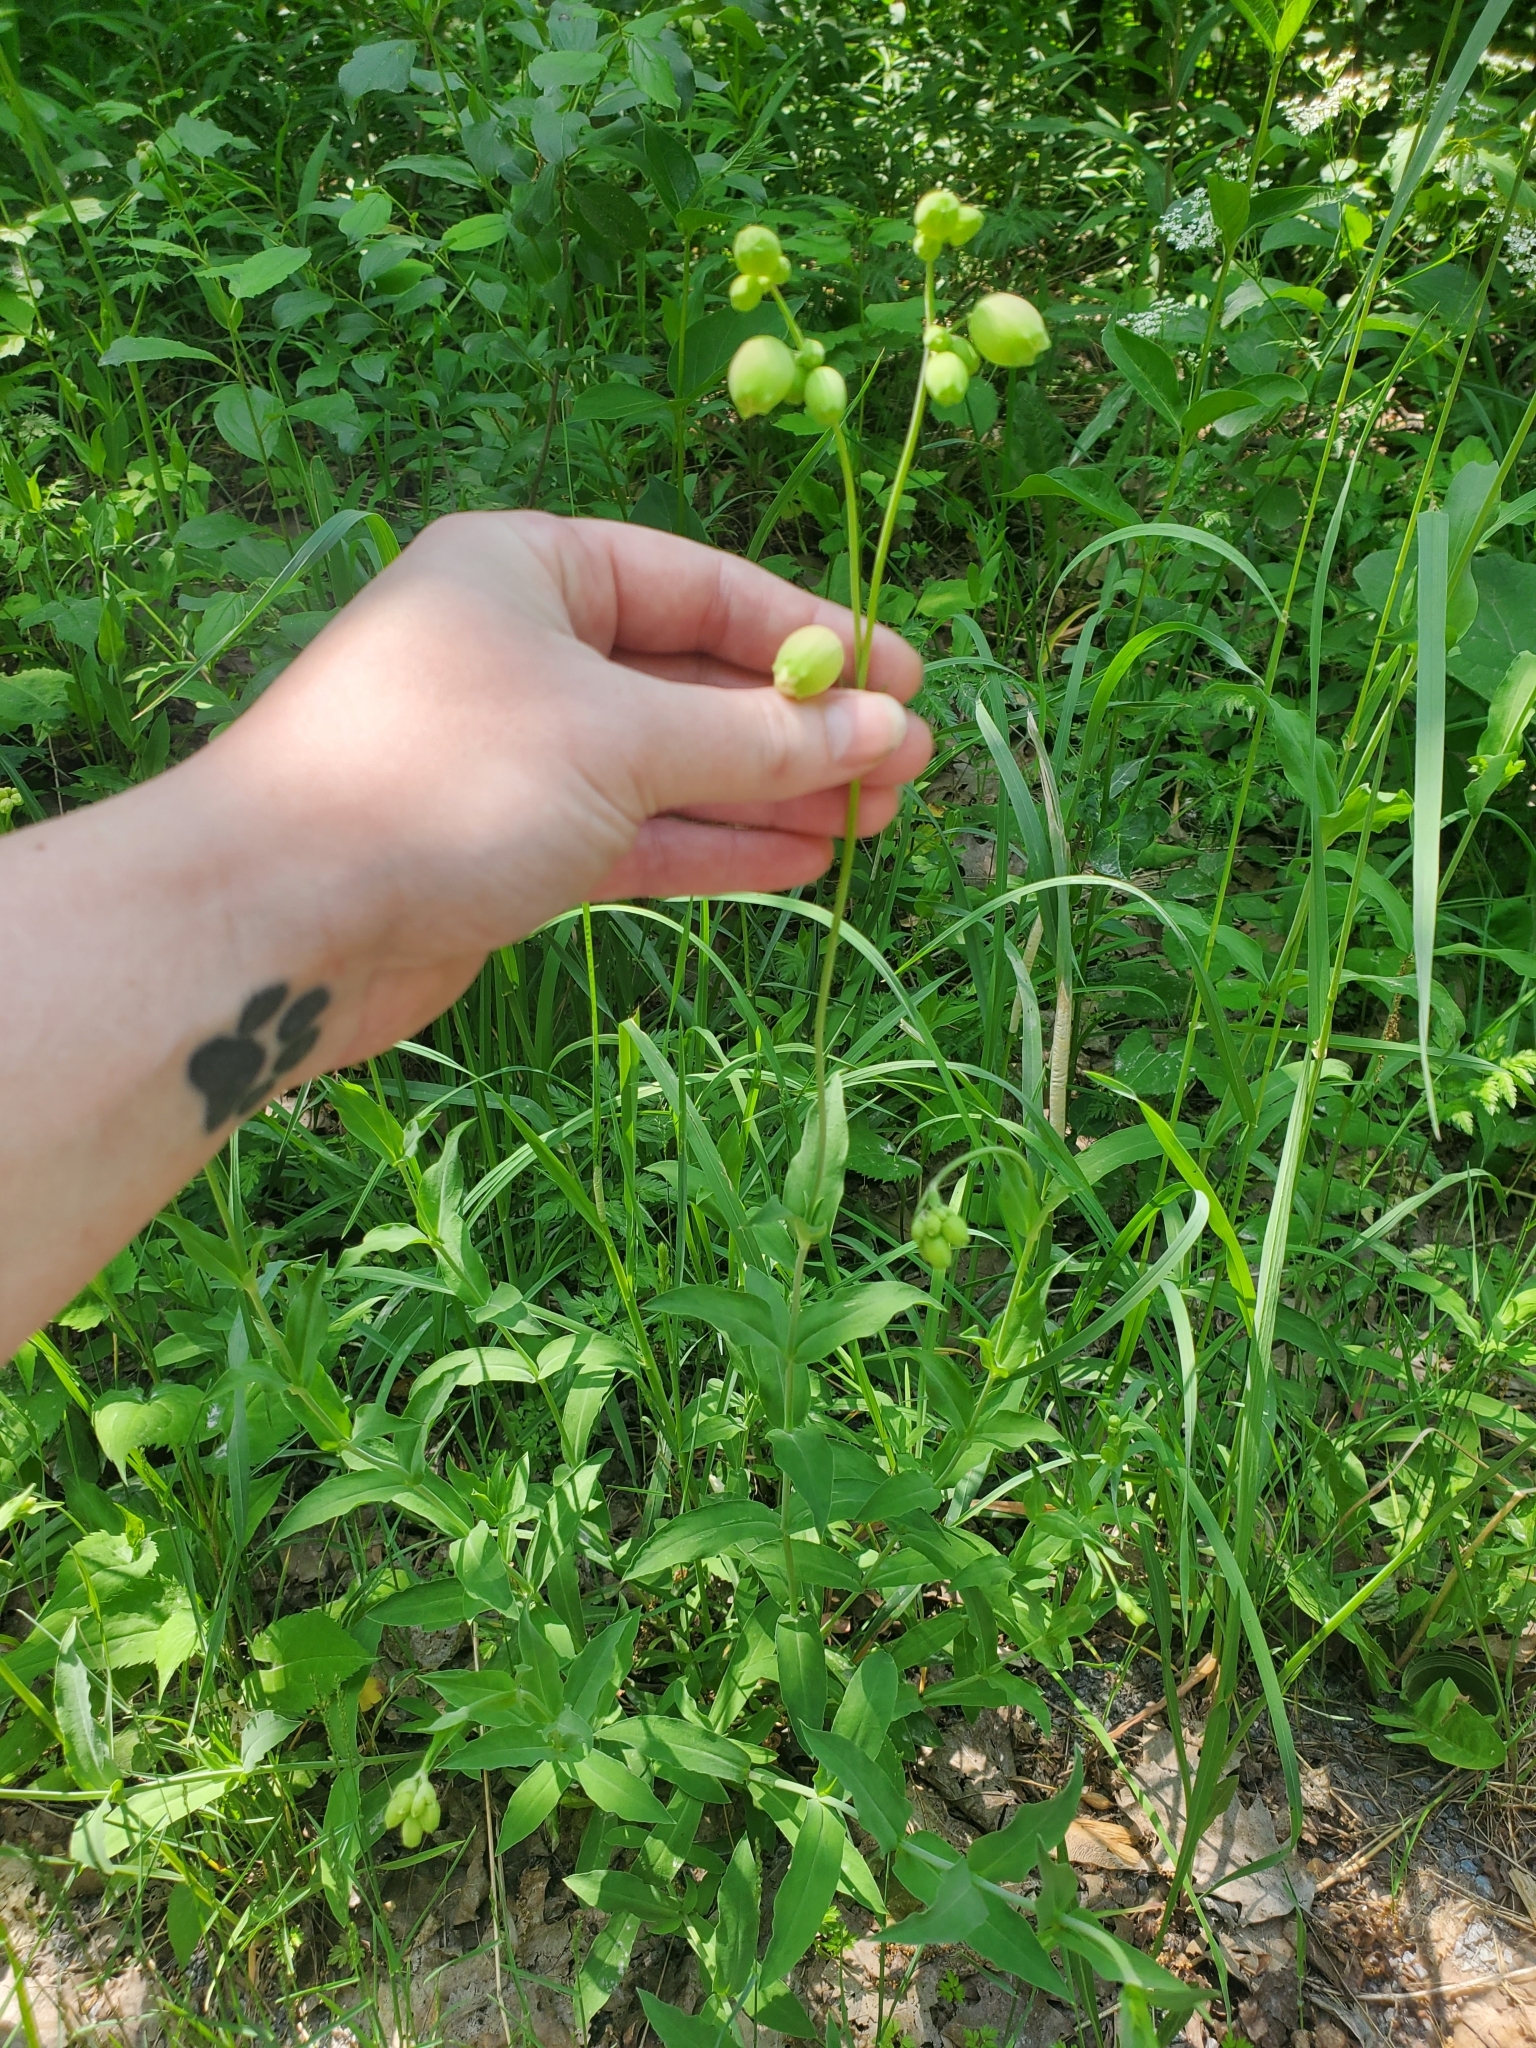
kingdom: Plantae
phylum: Tracheophyta
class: Magnoliopsida
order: Caryophyllales
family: Caryophyllaceae
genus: Silene
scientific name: Silene vulgaris
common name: Bladder campion
